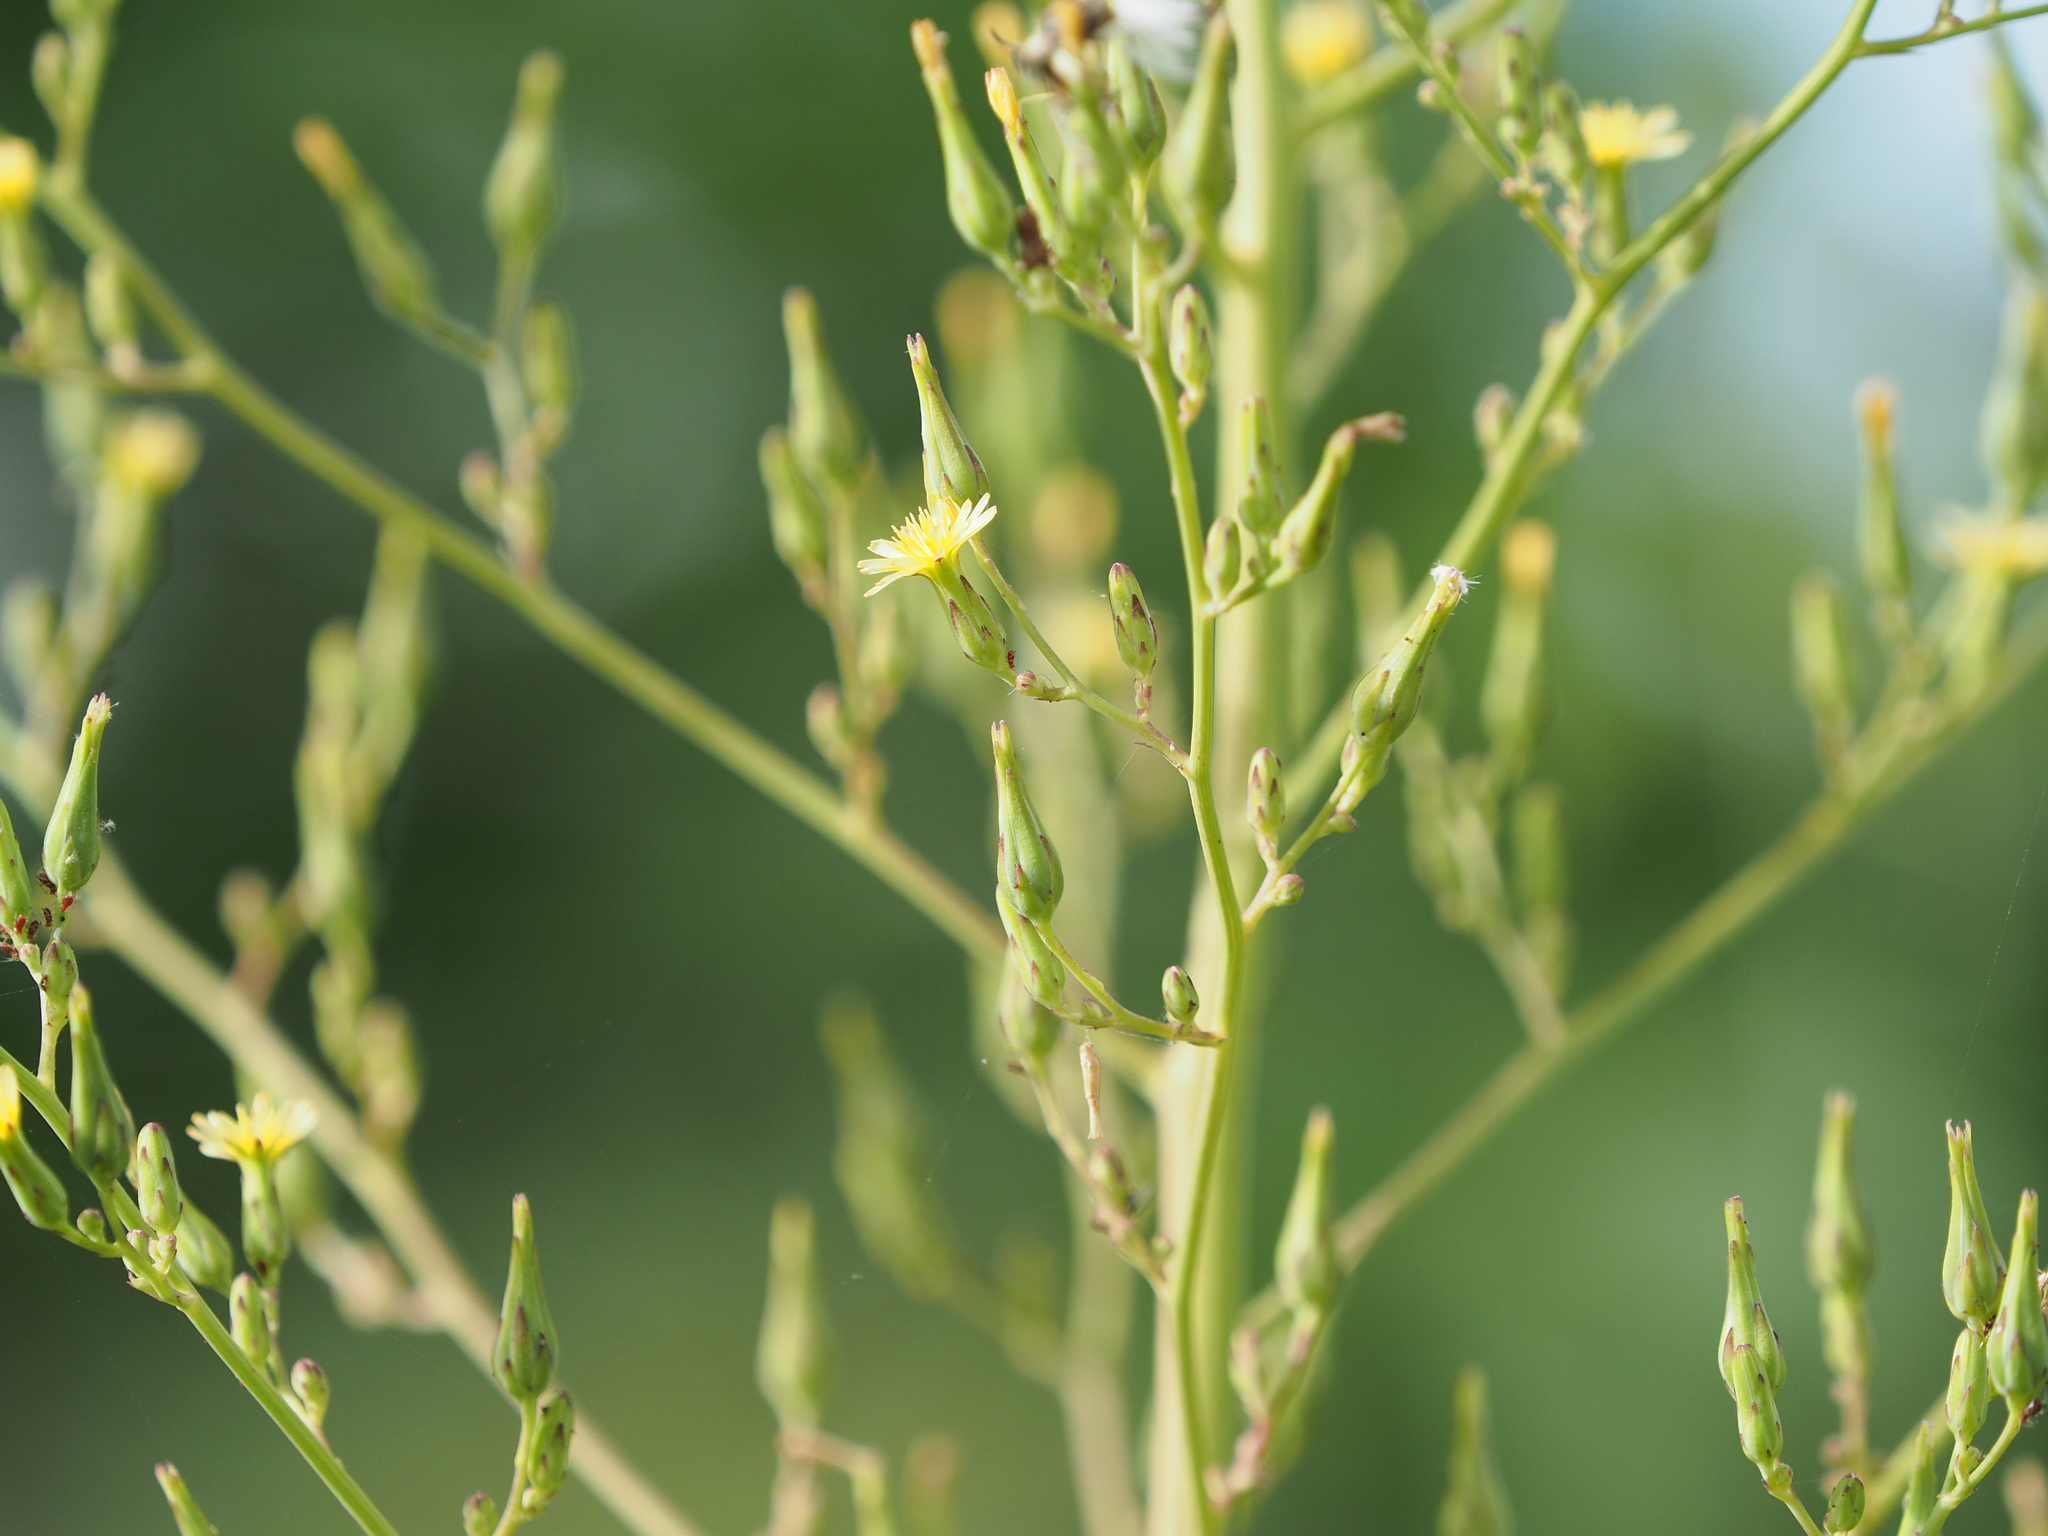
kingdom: Plantae
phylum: Tracheophyta
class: Magnoliopsida
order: Asterales
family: Asteraceae
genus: Lactuca
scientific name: Lactuca canadensis
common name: Canada lettuce
